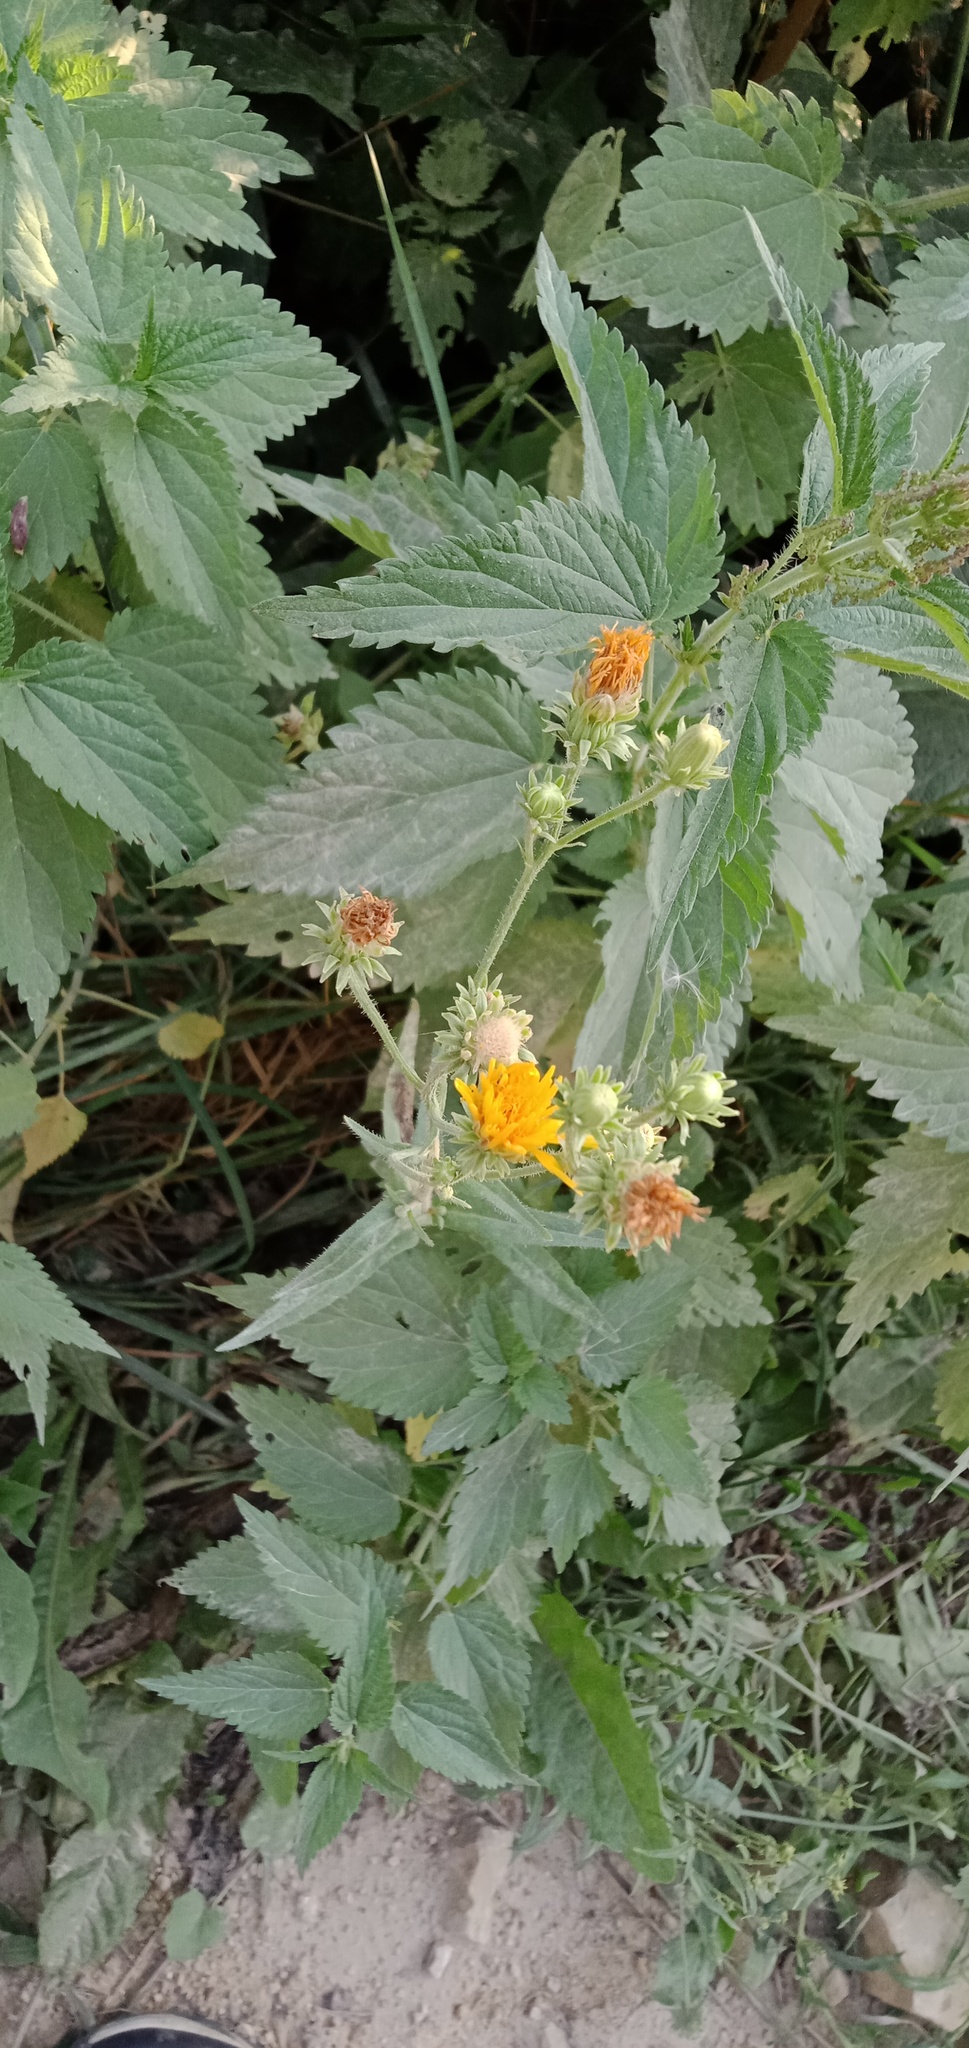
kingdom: Plantae
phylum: Tracheophyta
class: Magnoliopsida
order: Asterales
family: Asteraceae
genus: Picris
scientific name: Picris hieracioides
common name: Hawkweed oxtongue
